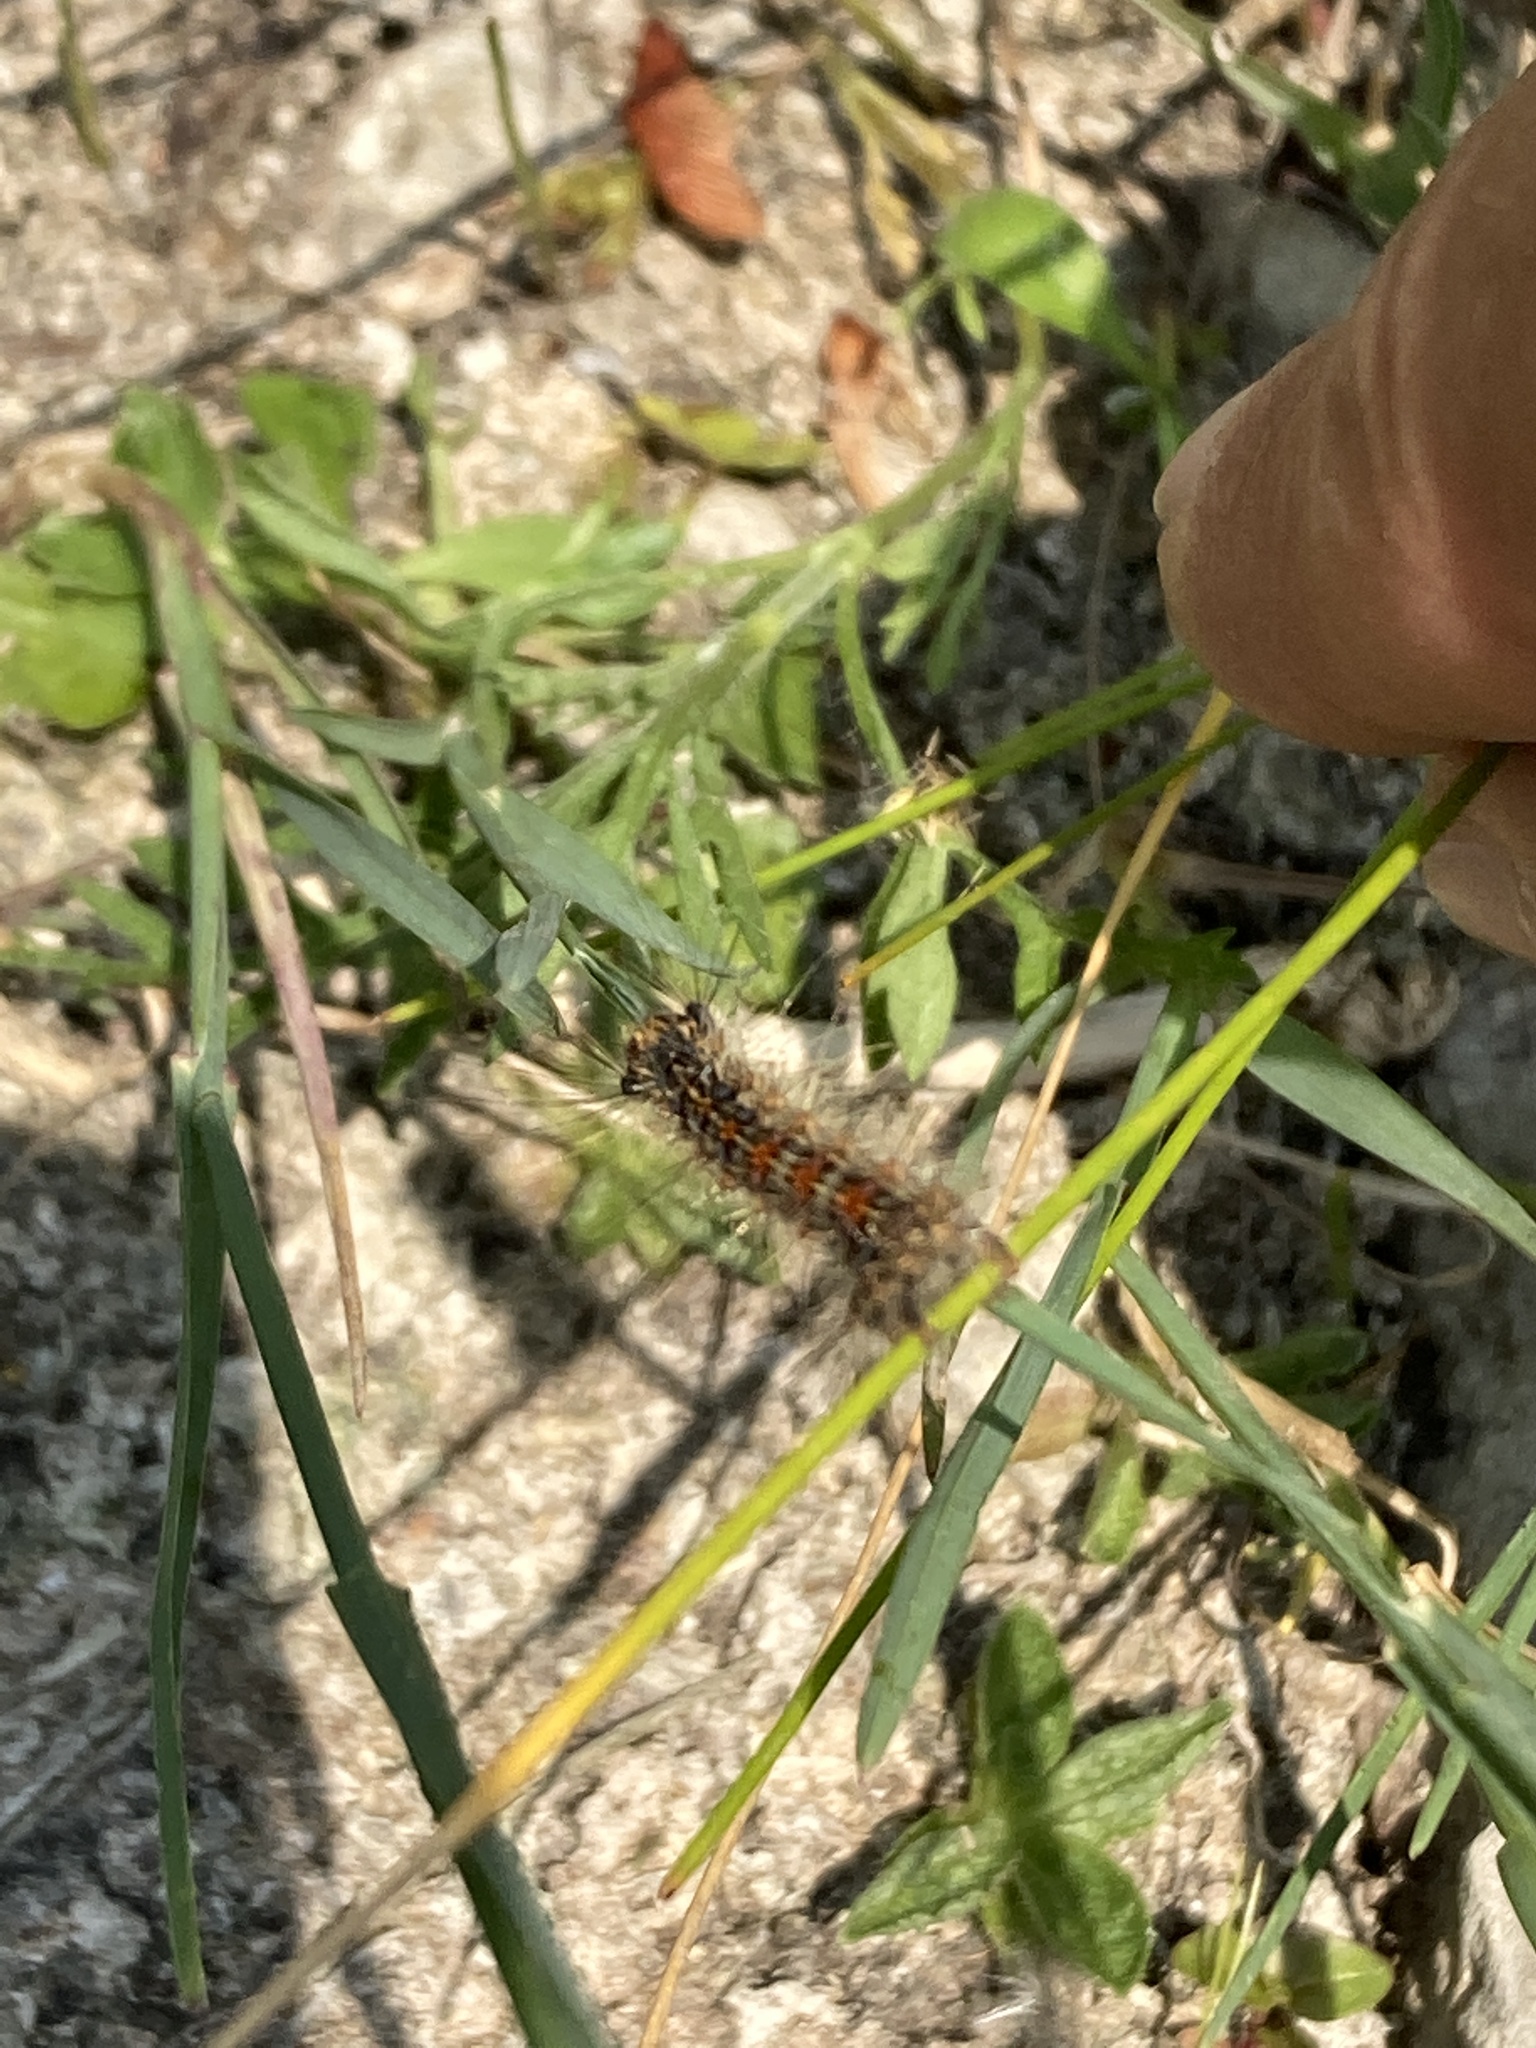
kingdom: Animalia
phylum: Arthropoda
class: Insecta
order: Lepidoptera
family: Erebidae
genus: Lymantria
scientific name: Lymantria dispar
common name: Gypsy moth
